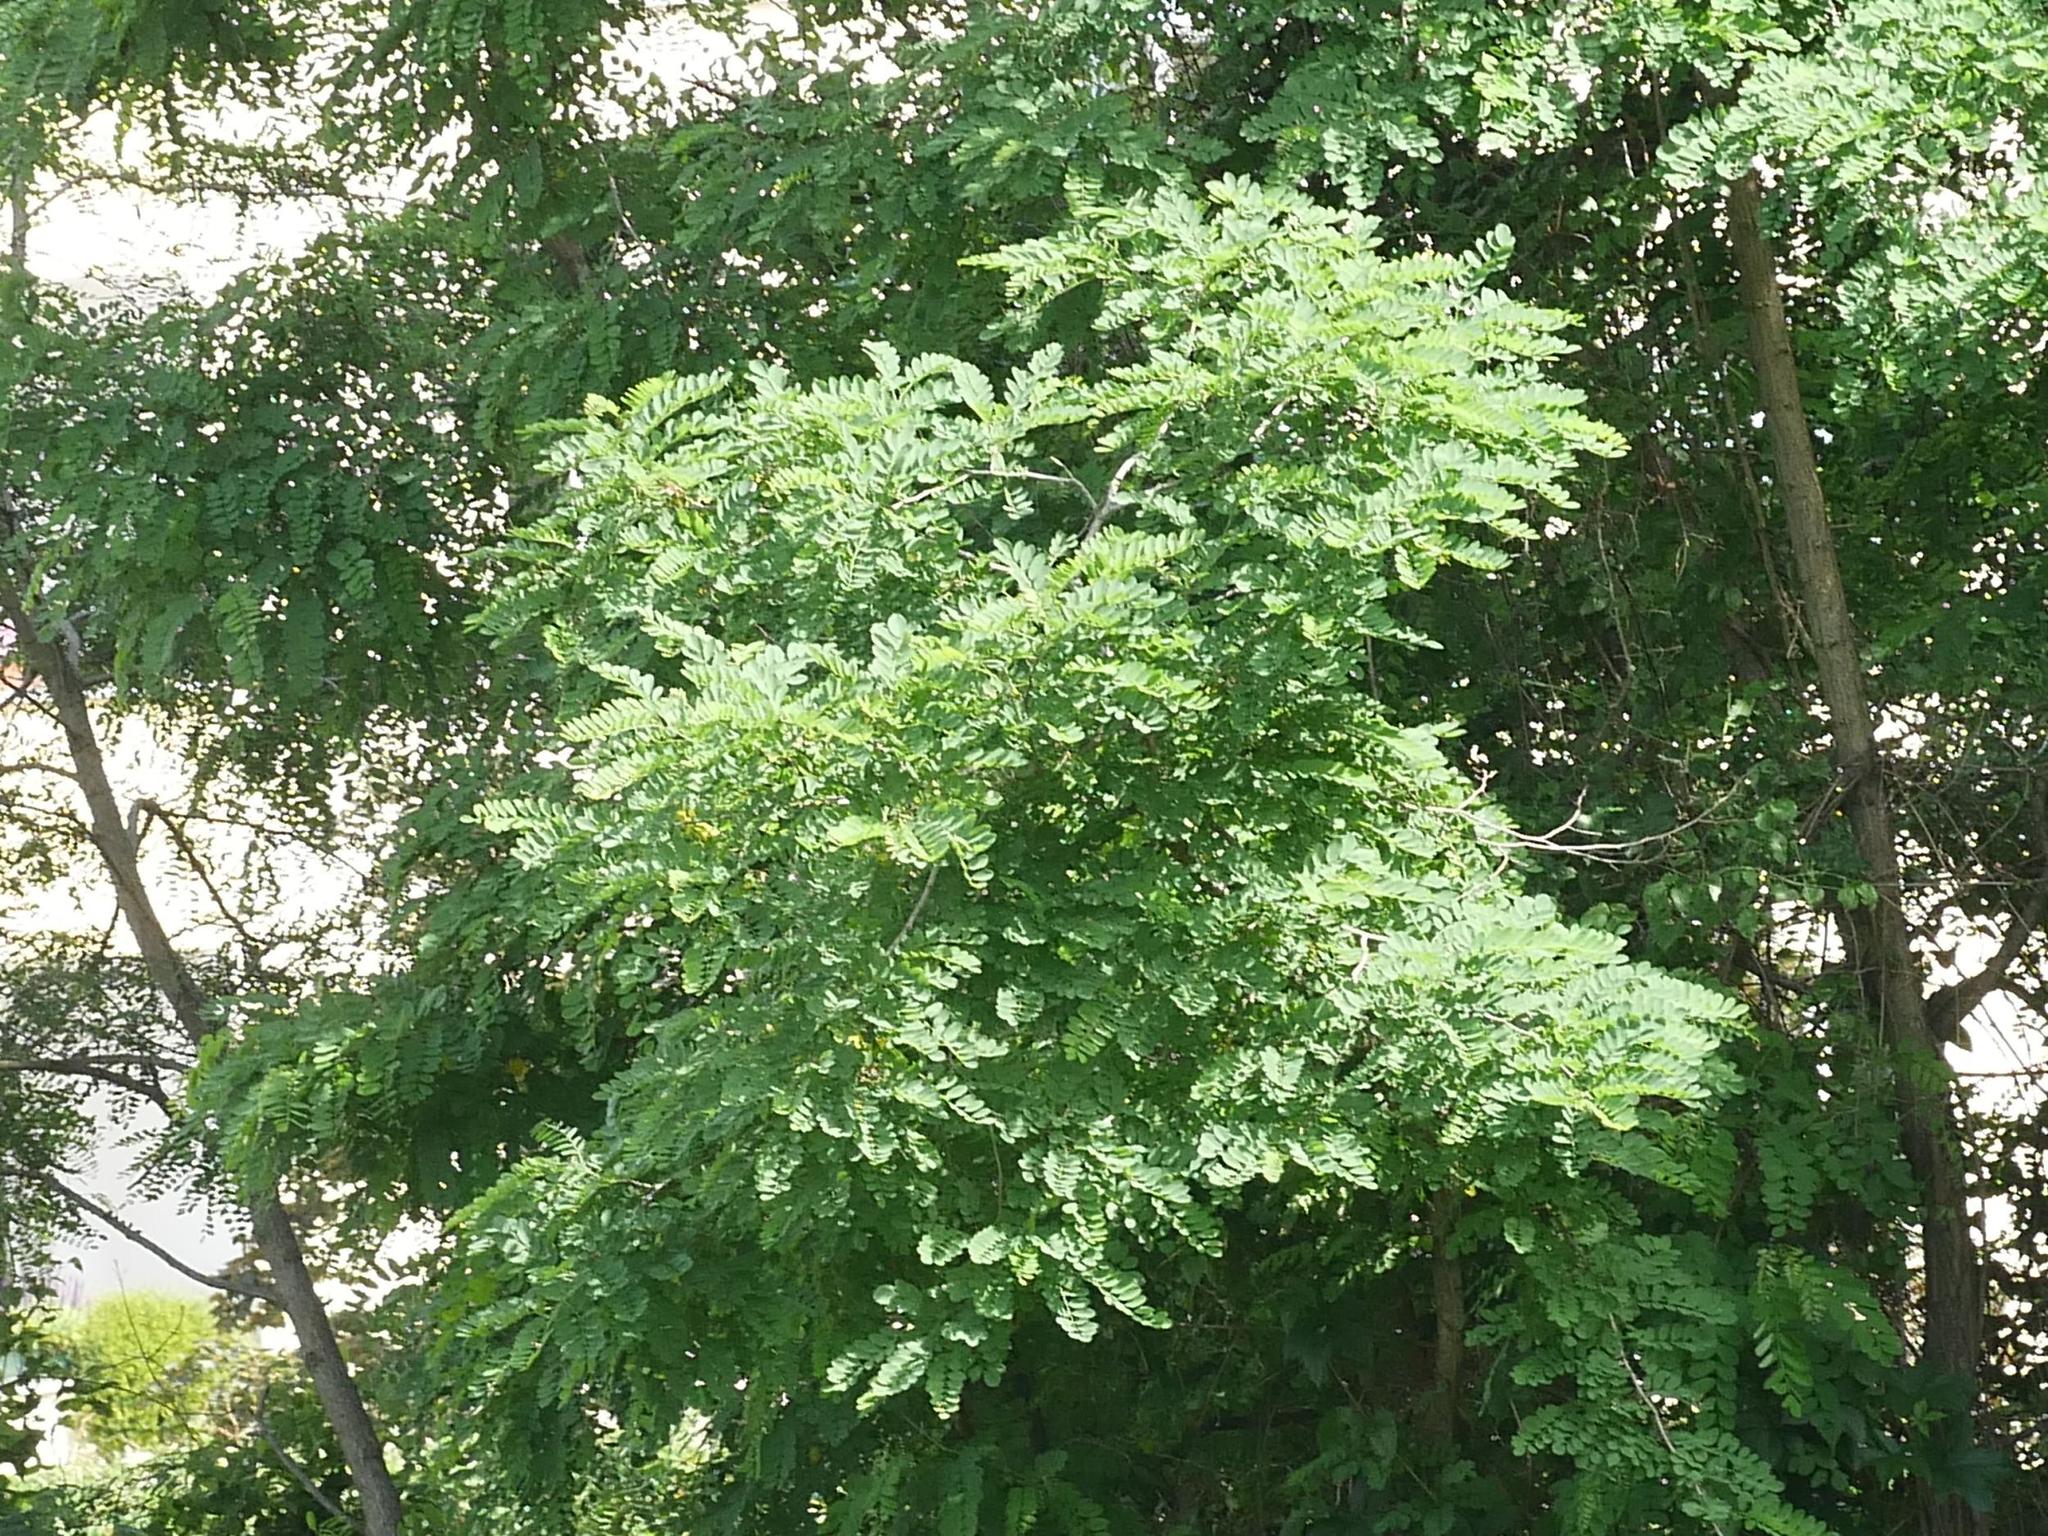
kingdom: Plantae
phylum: Tracheophyta
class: Magnoliopsida
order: Fabales
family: Fabaceae
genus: Robinia
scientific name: Robinia pseudoacacia
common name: Black locust
